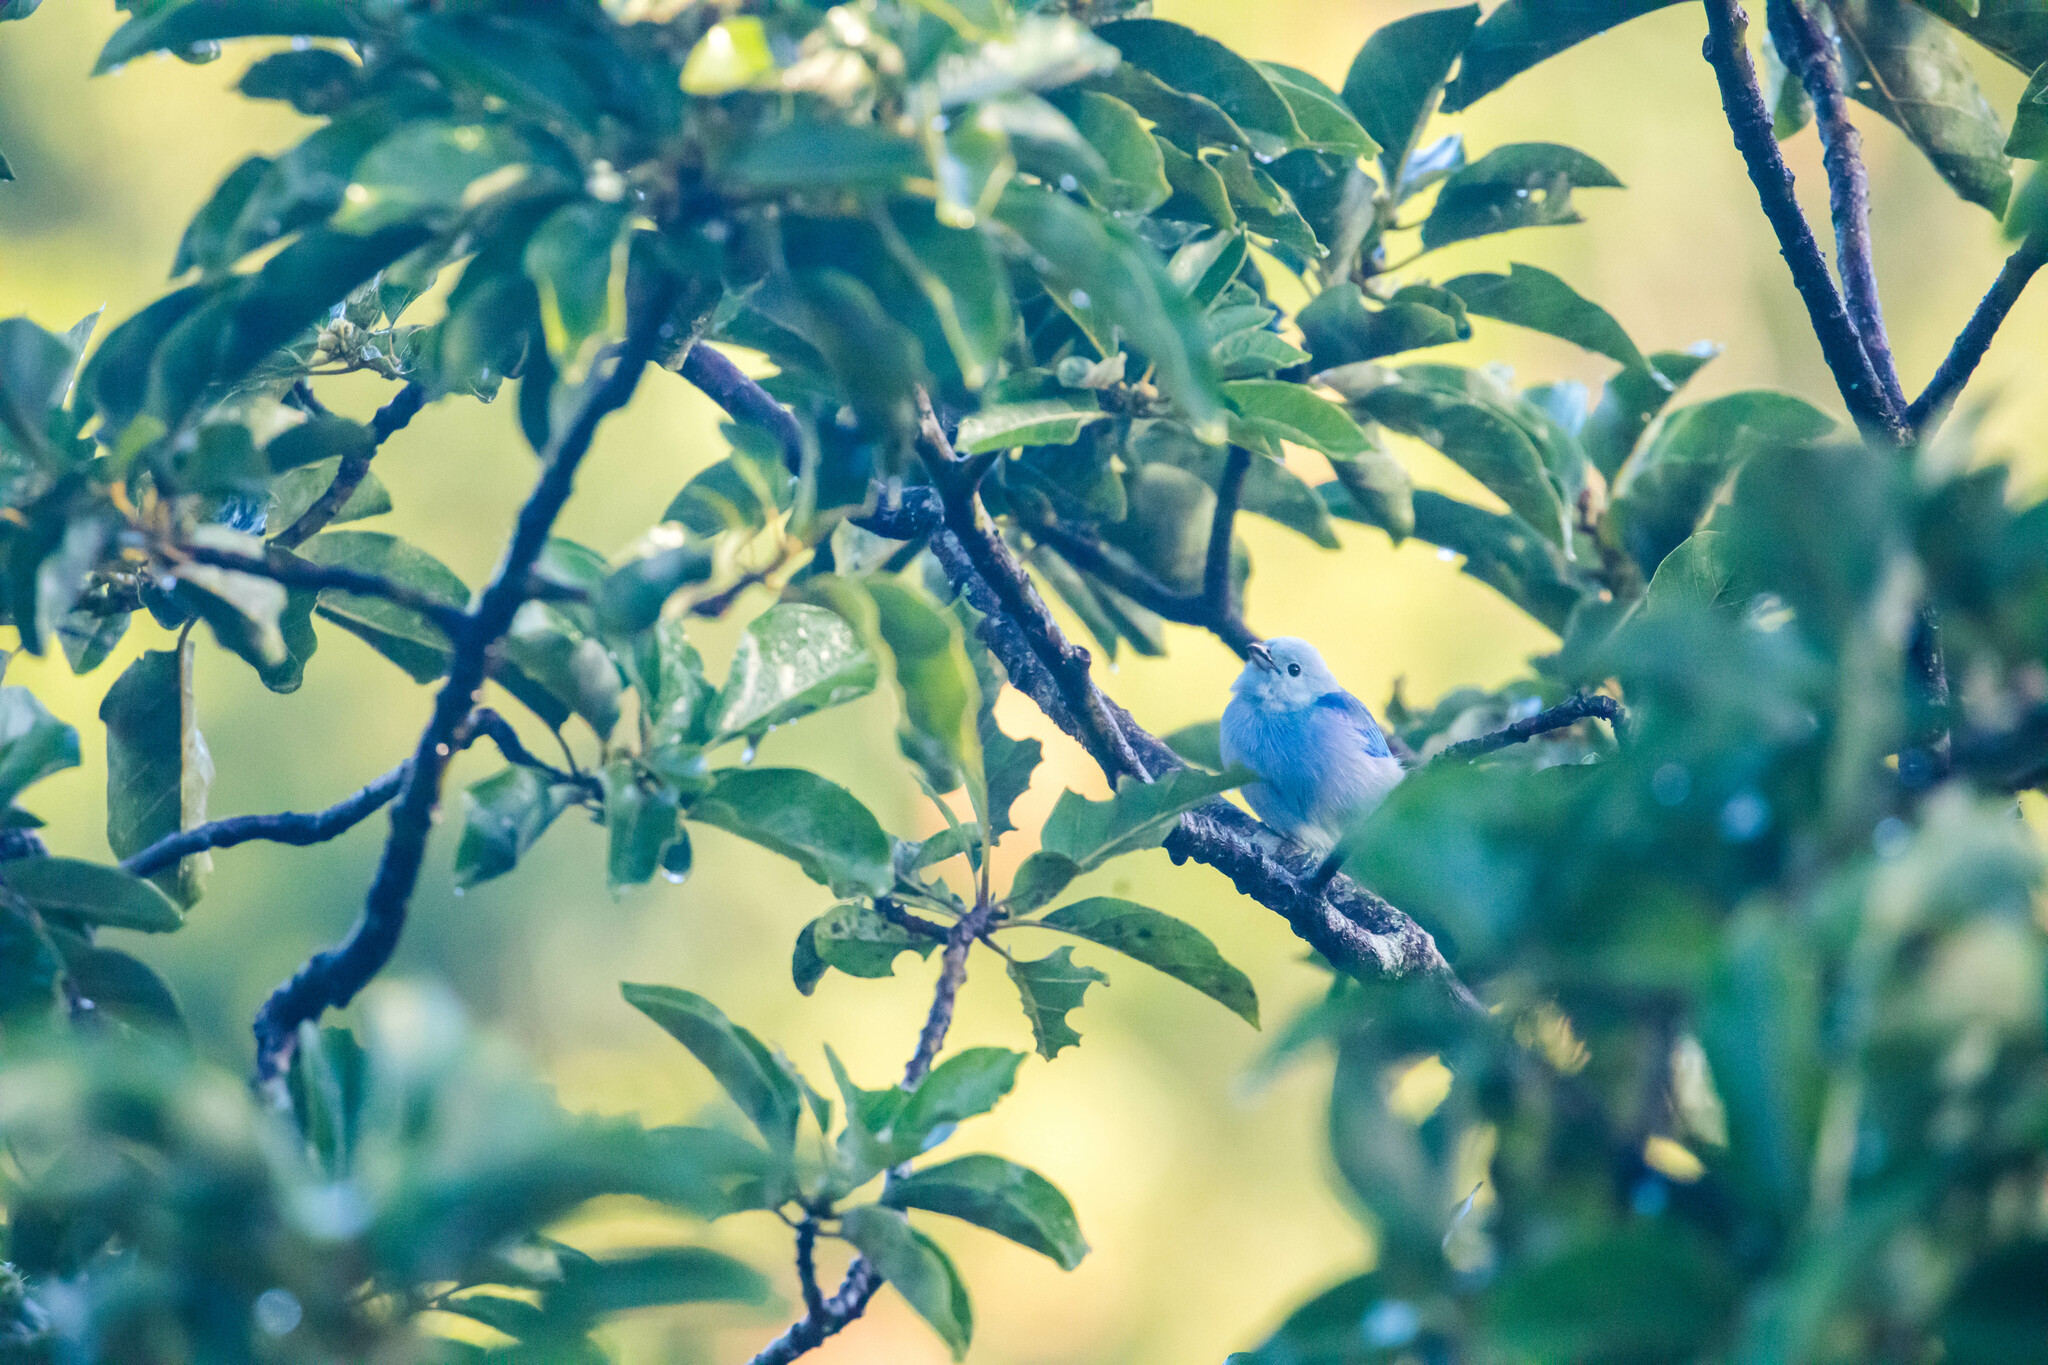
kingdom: Animalia
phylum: Chordata
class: Aves
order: Passeriformes
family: Thraupidae
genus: Thraupis
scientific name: Thraupis episcopus
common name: Blue-grey tanager
